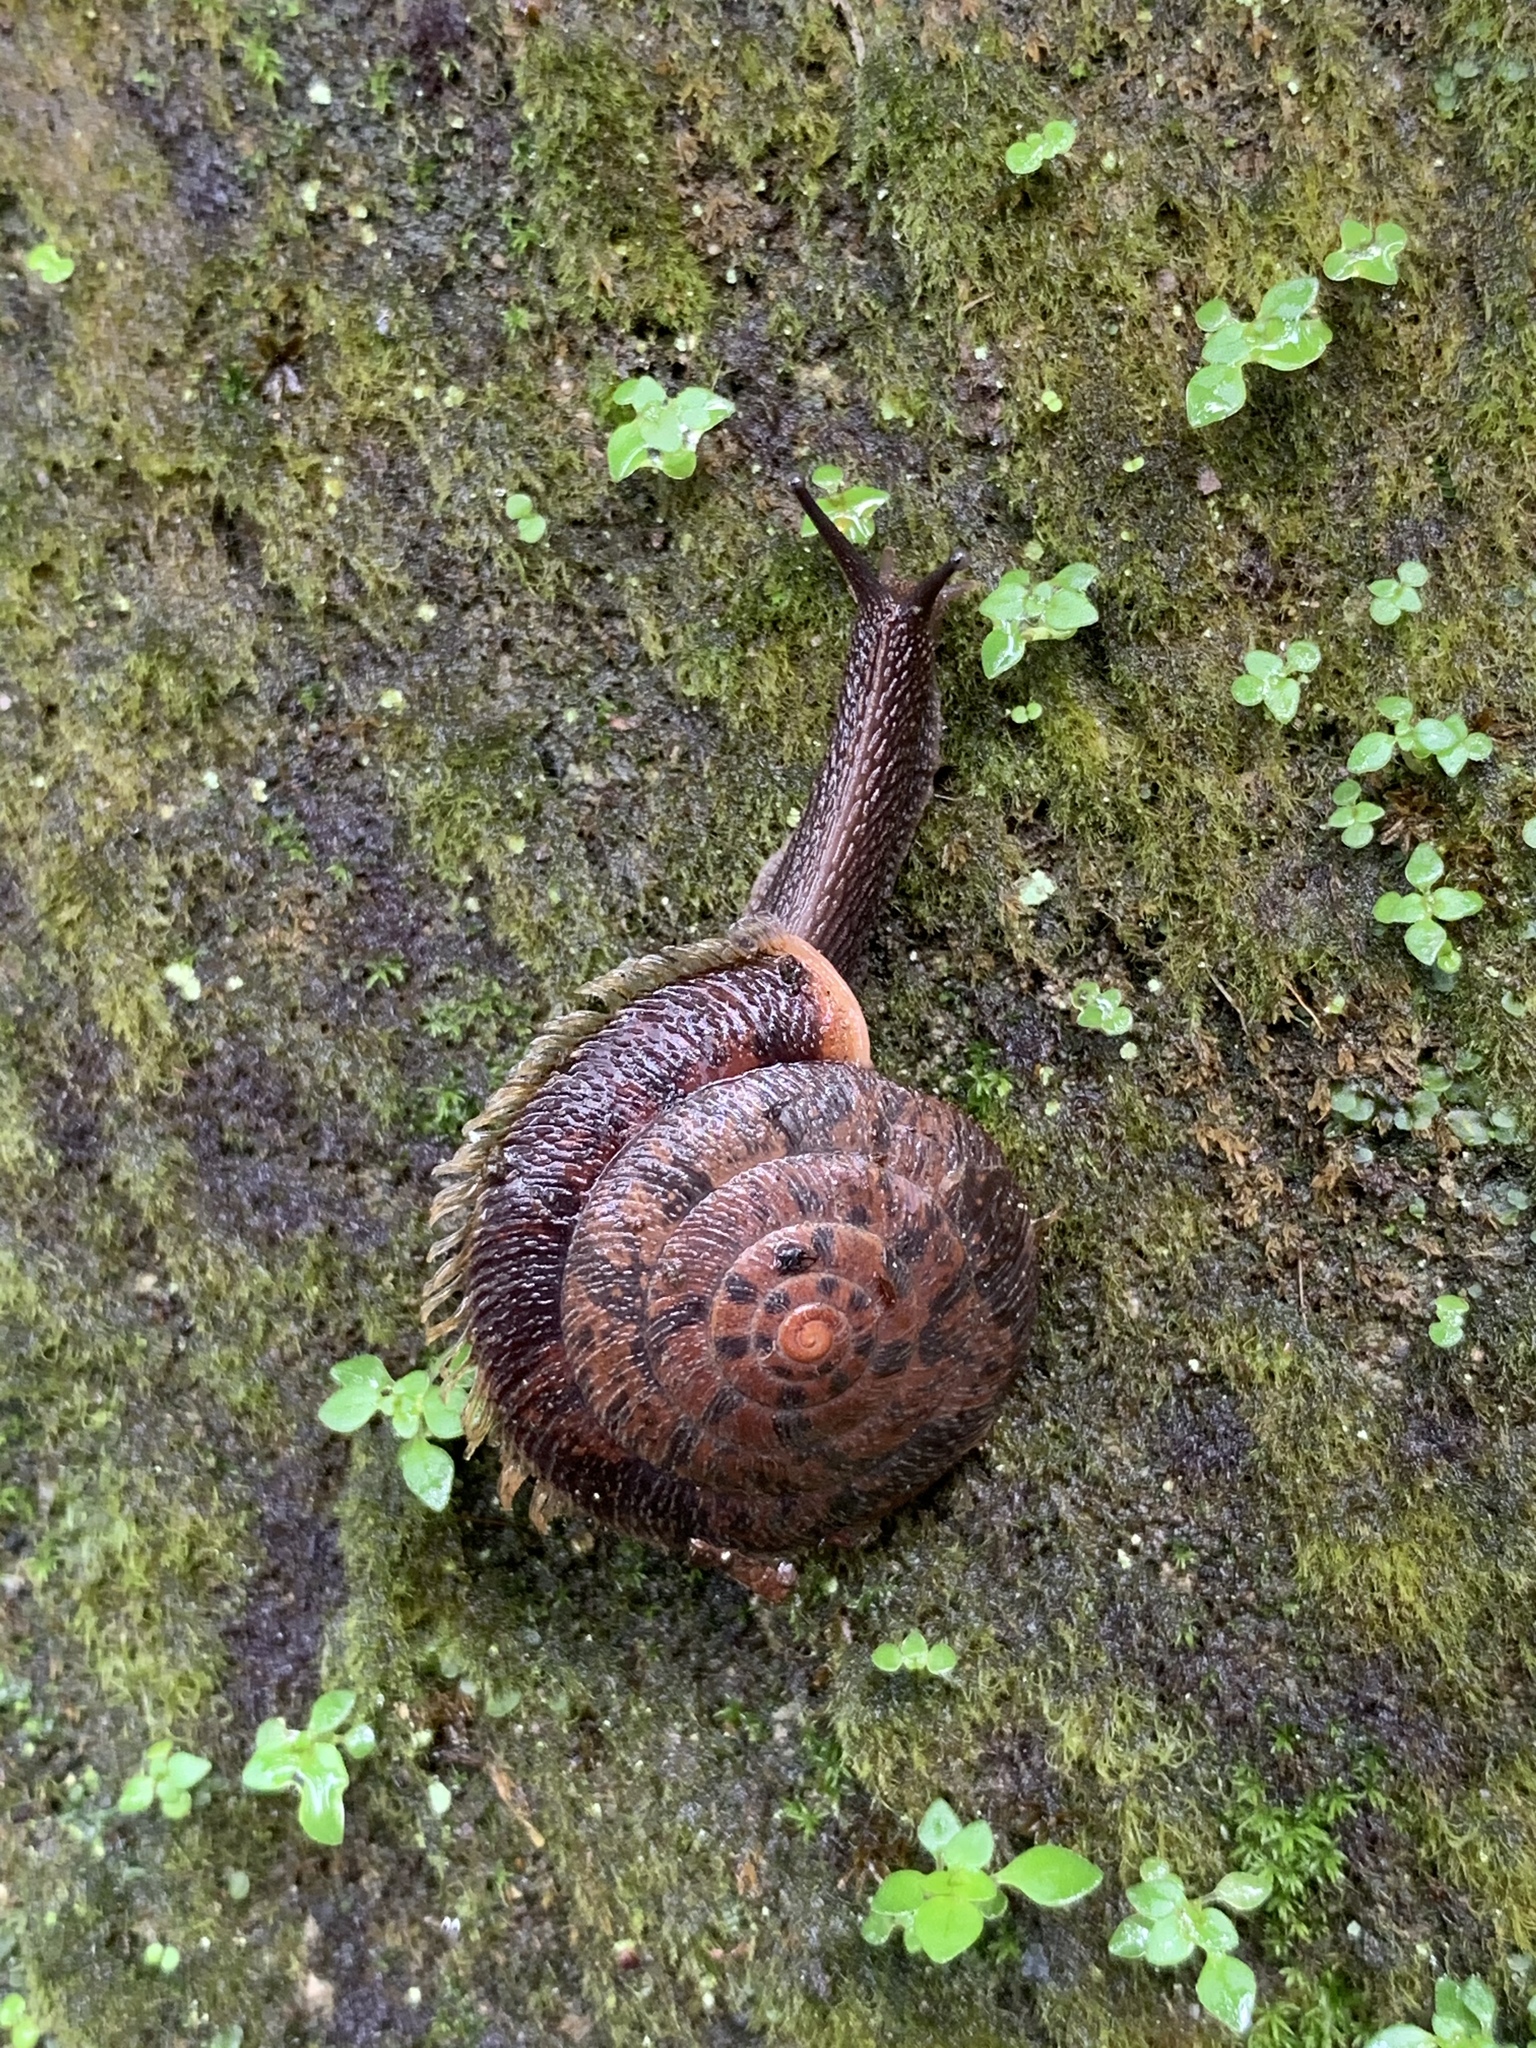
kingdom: Animalia
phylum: Mollusca
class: Gastropoda
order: Stylommatophora
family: Camaenidae
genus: Plectotropis
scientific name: Plectotropis mackensii
